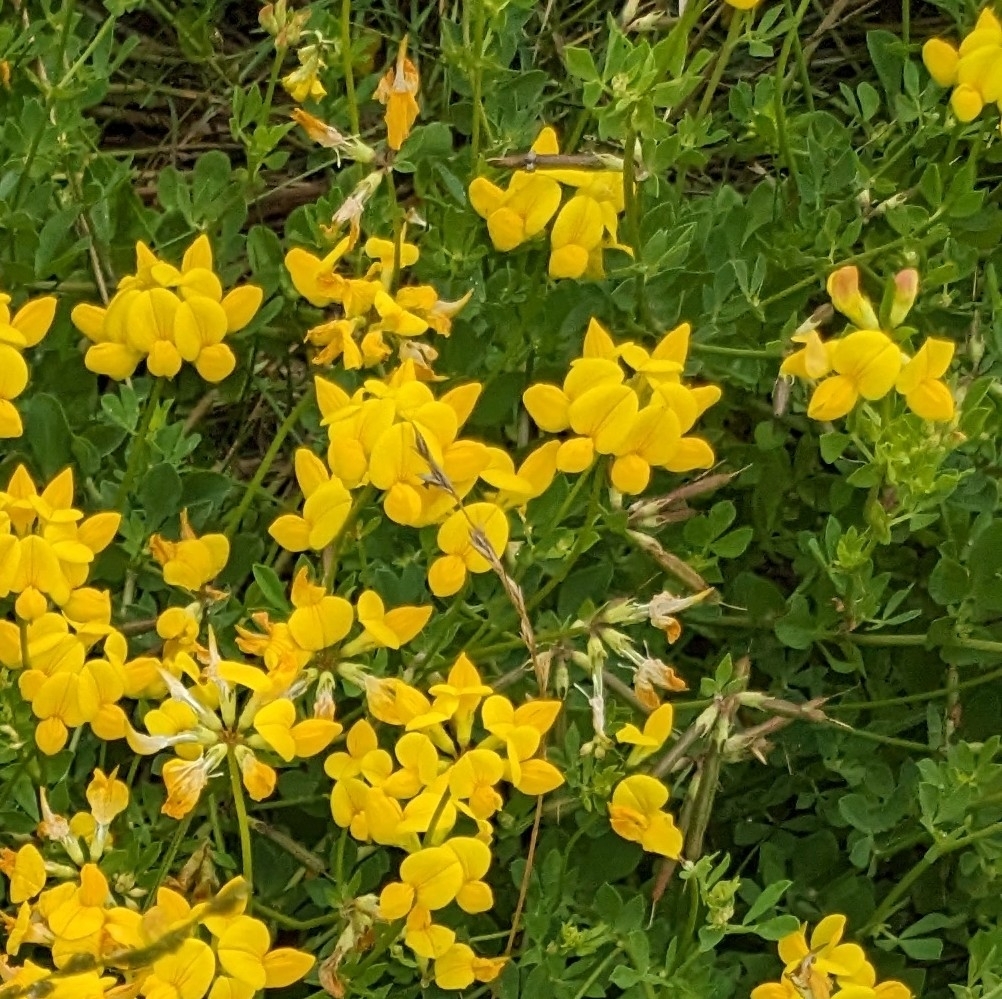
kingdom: Plantae
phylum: Tracheophyta
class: Magnoliopsida
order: Fabales
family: Fabaceae
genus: Lotus
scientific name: Lotus corniculatus
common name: Common bird's-foot-trefoil
